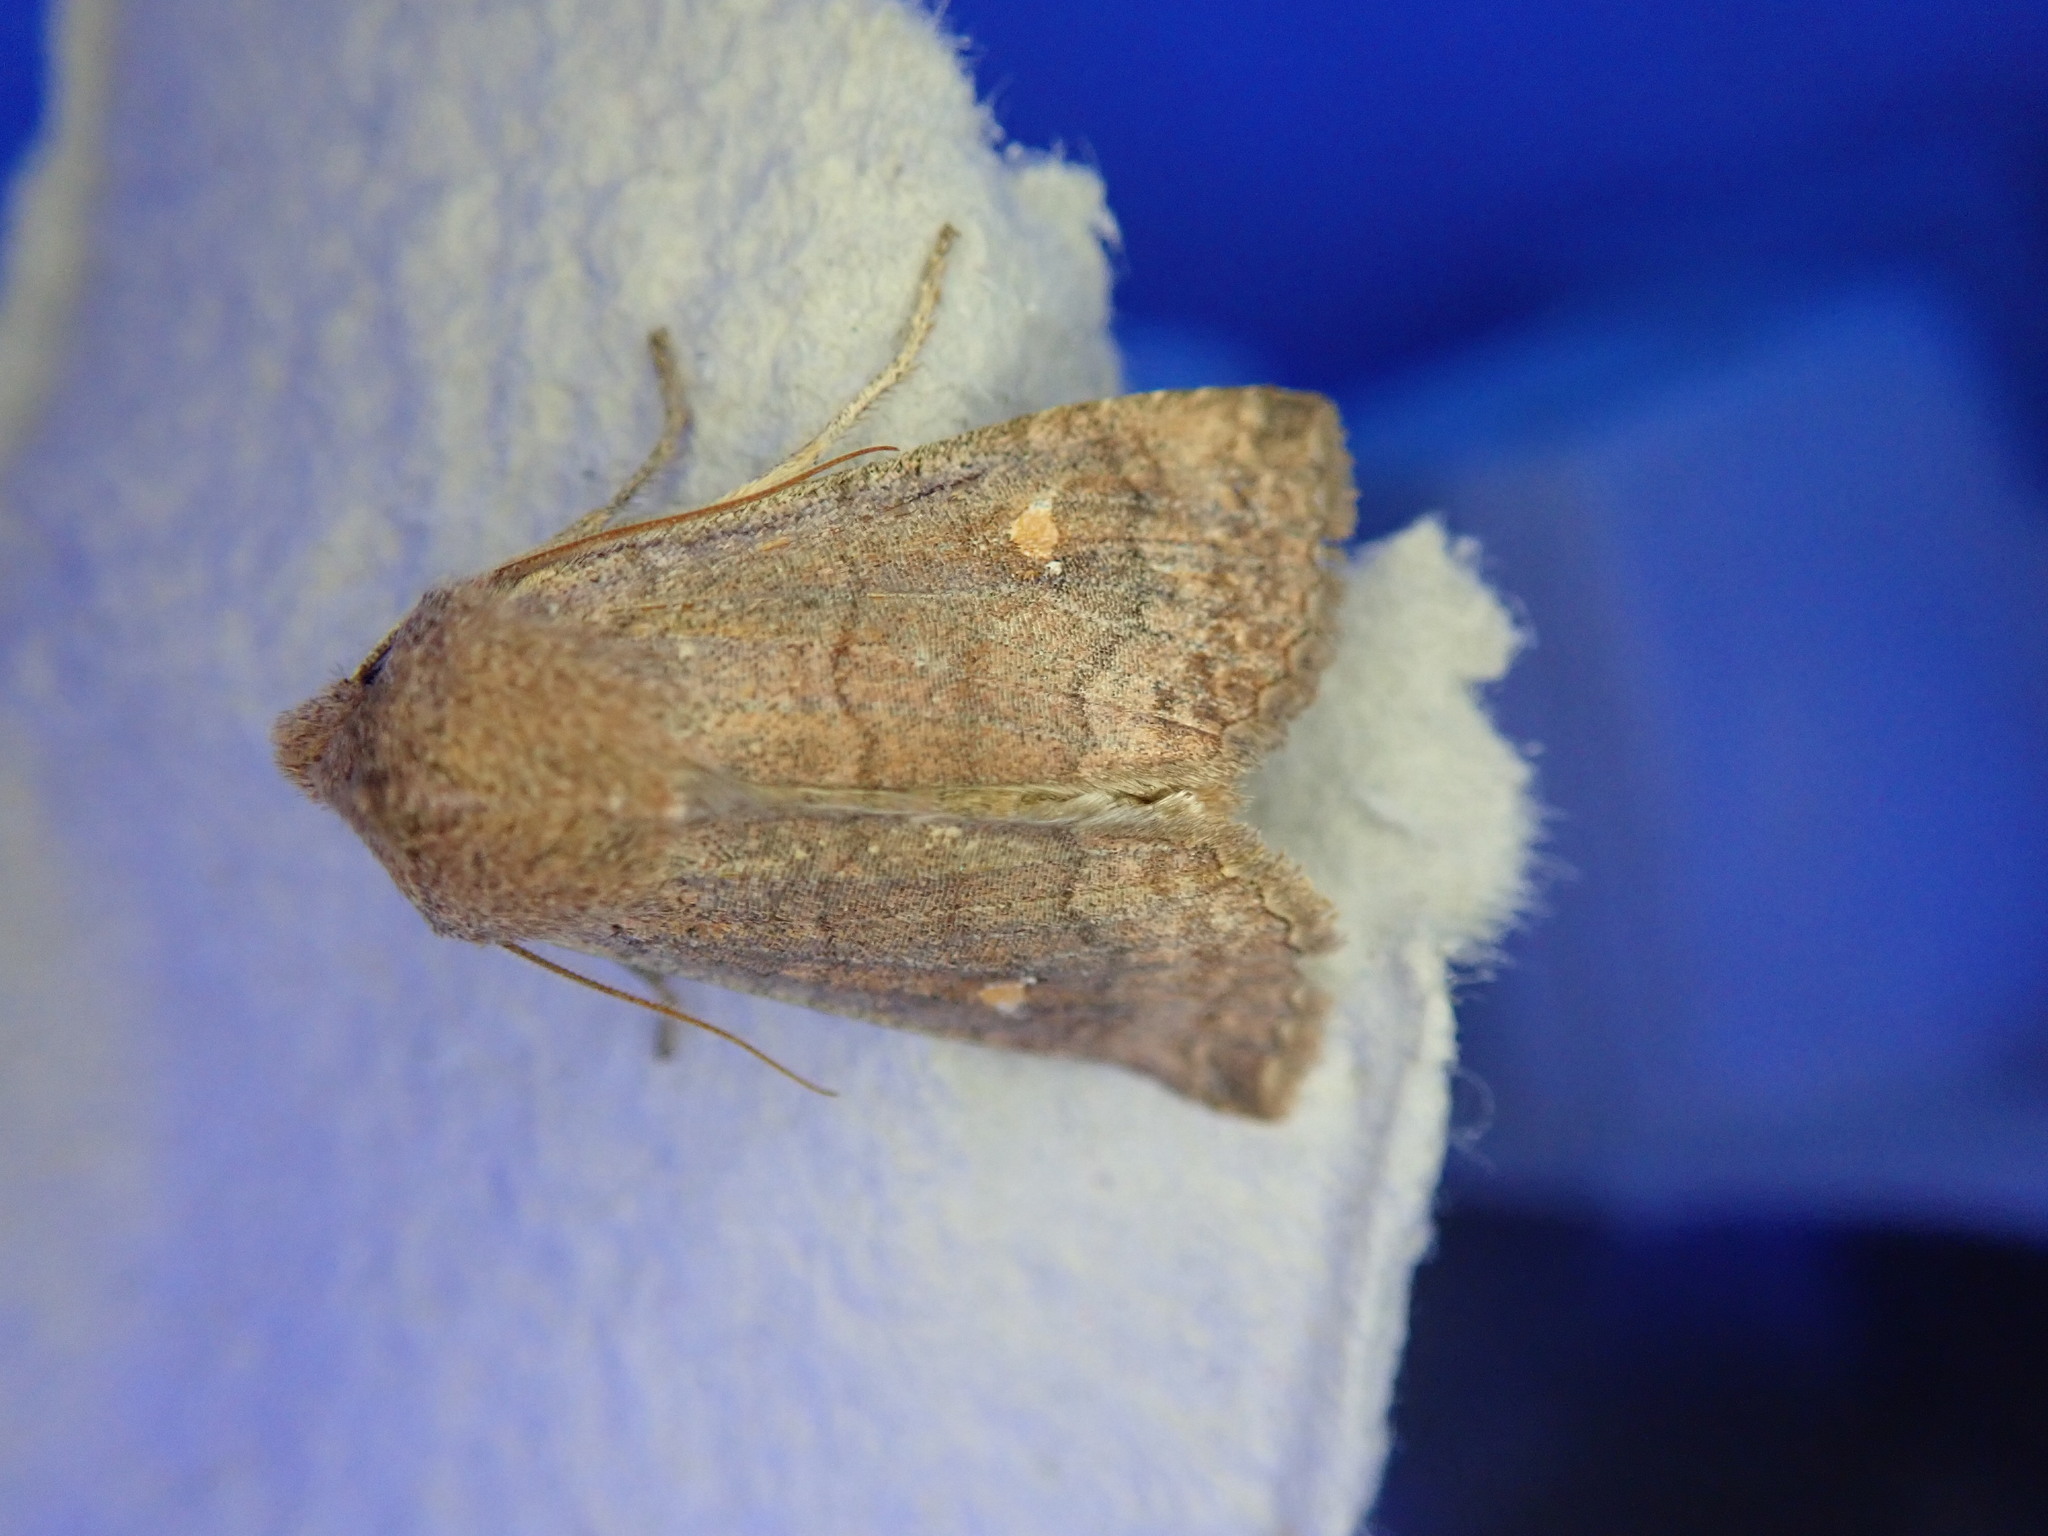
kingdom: Animalia
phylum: Arthropoda
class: Insecta
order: Lepidoptera
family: Noctuidae
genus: Eupsilia
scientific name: Eupsilia transversa
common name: Satellite
